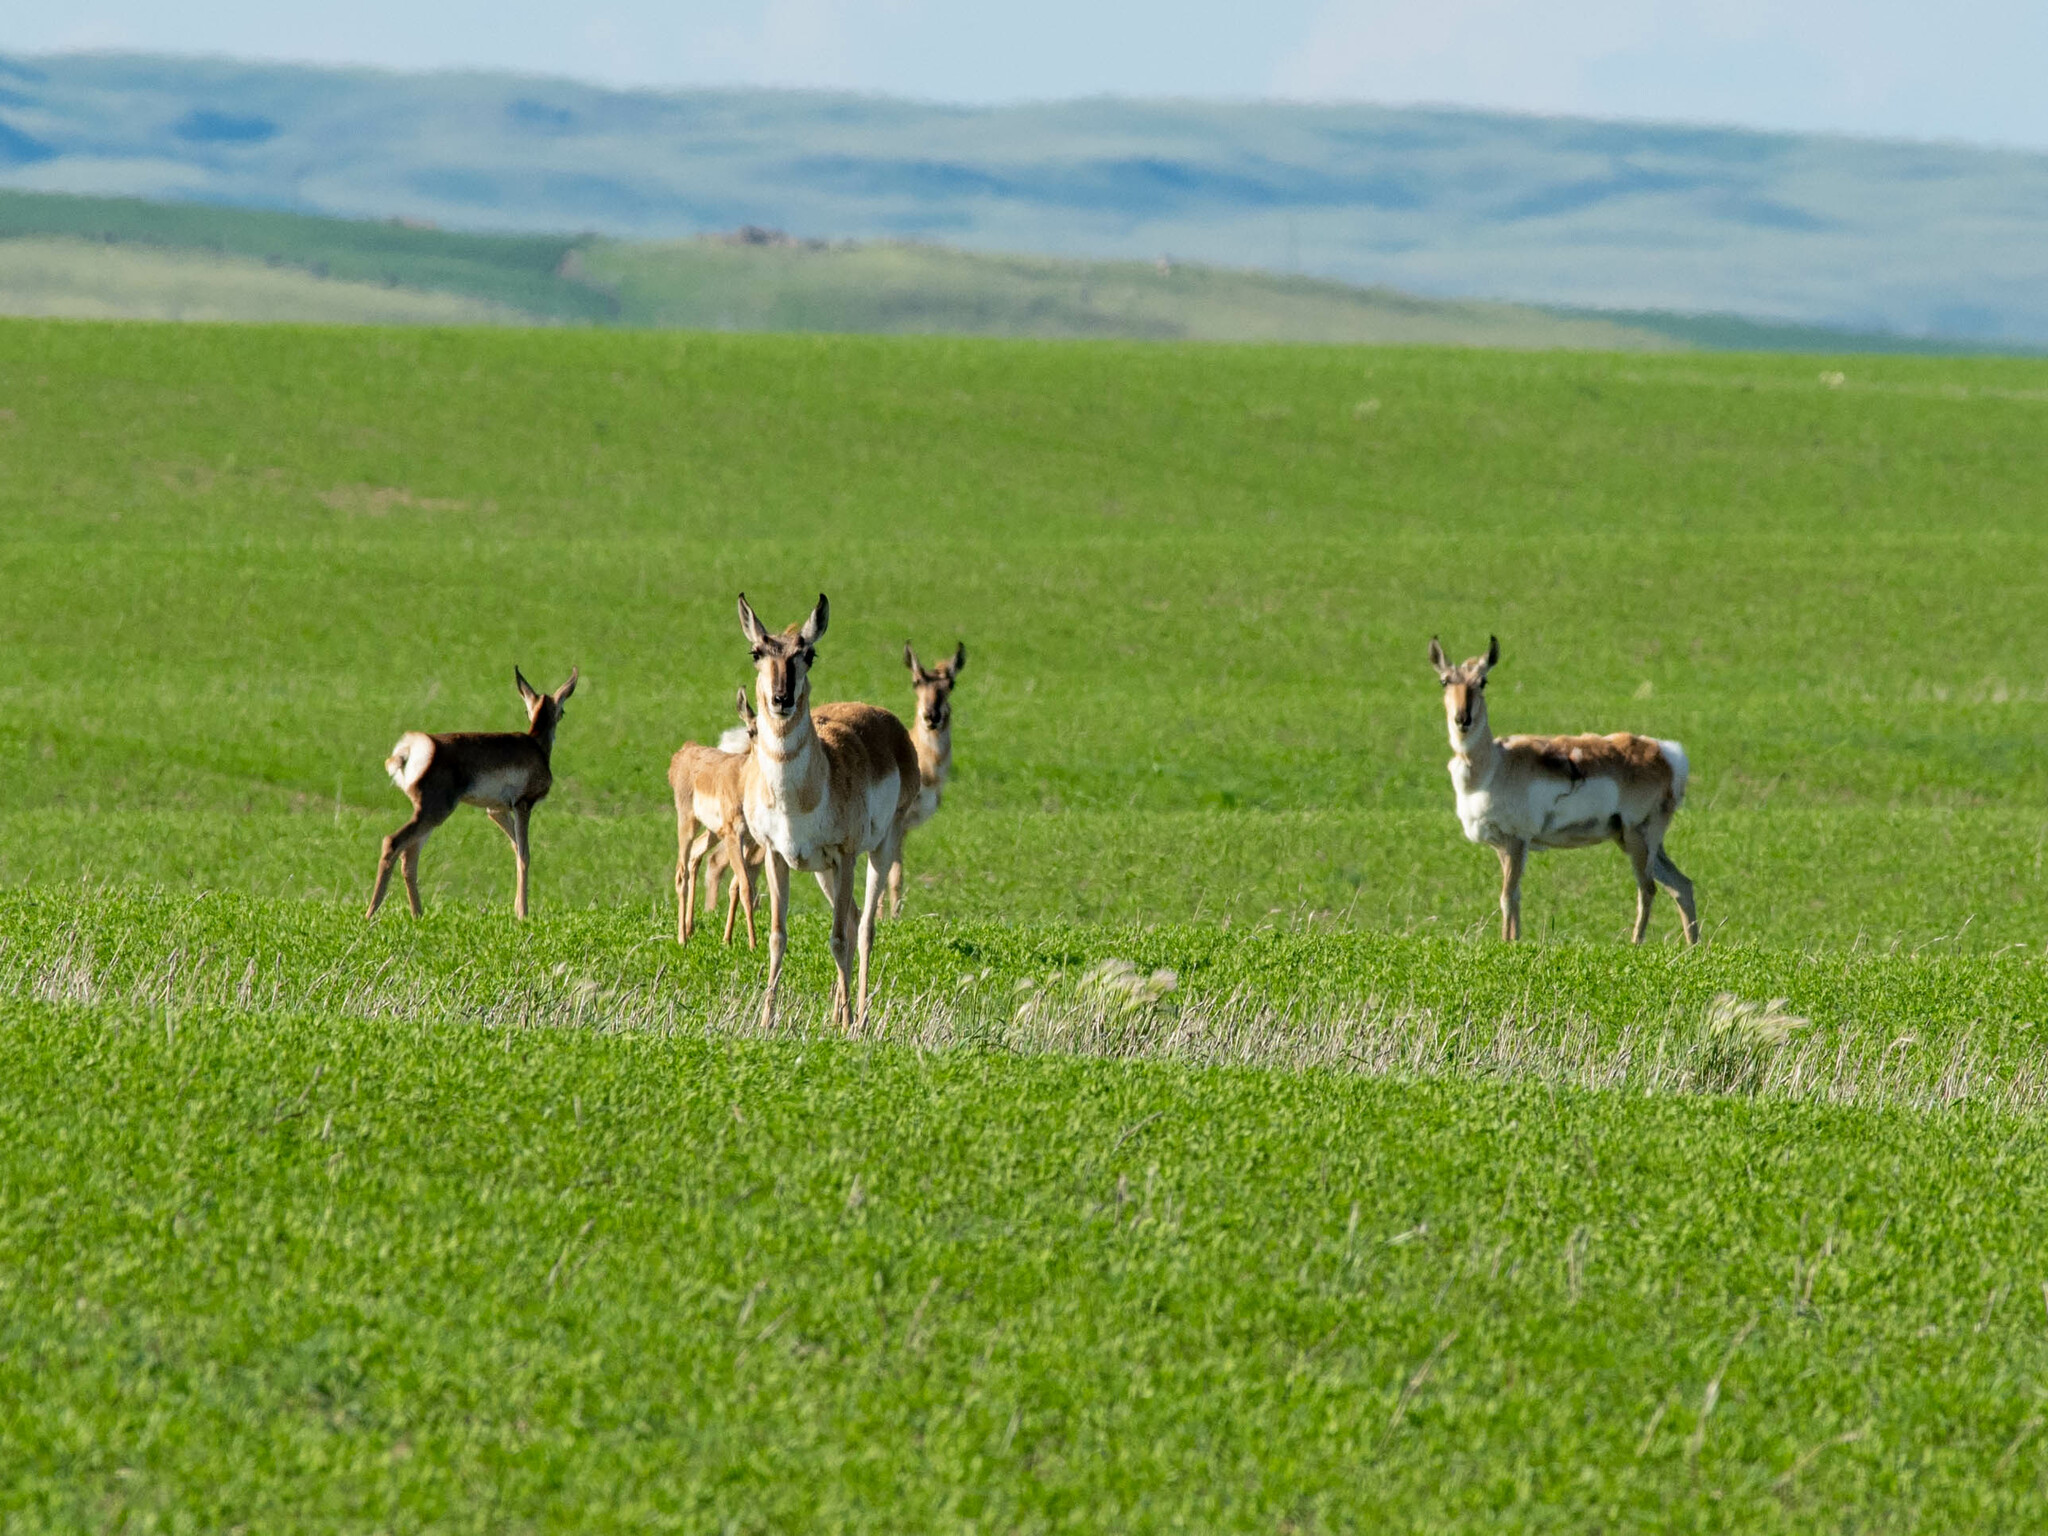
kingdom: Animalia
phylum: Chordata
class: Mammalia
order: Artiodactyla
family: Antilocapridae
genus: Antilocapra
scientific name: Antilocapra americana
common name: Pronghorn
